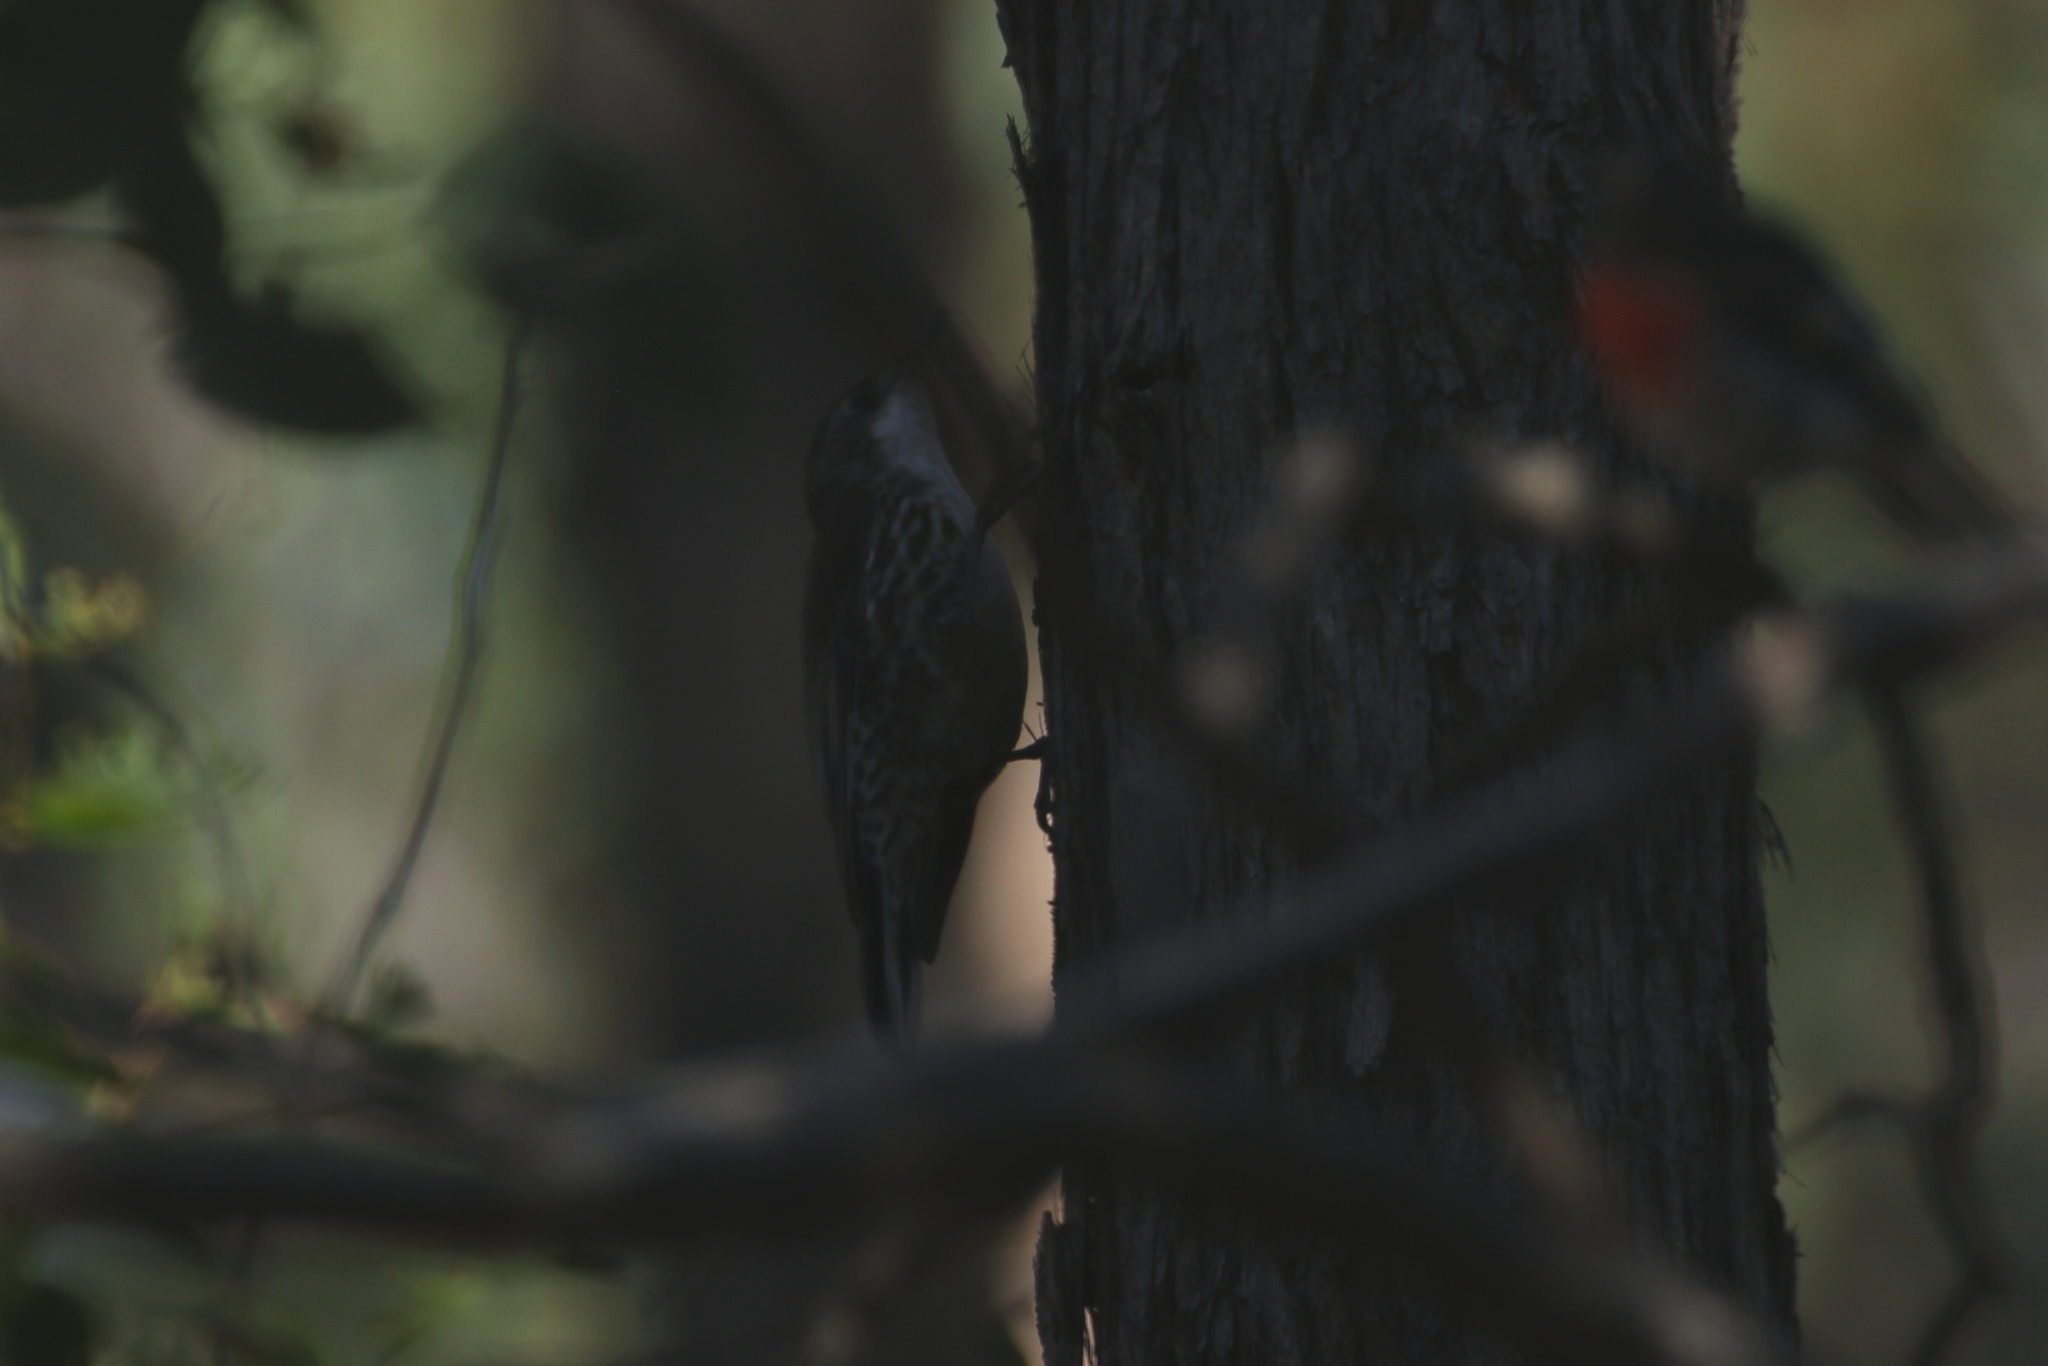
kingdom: Animalia
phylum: Chordata
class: Aves
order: Passeriformes
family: Climacteridae
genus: Cormobates
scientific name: Cormobates leucophaea
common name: White-throated treecreeper
